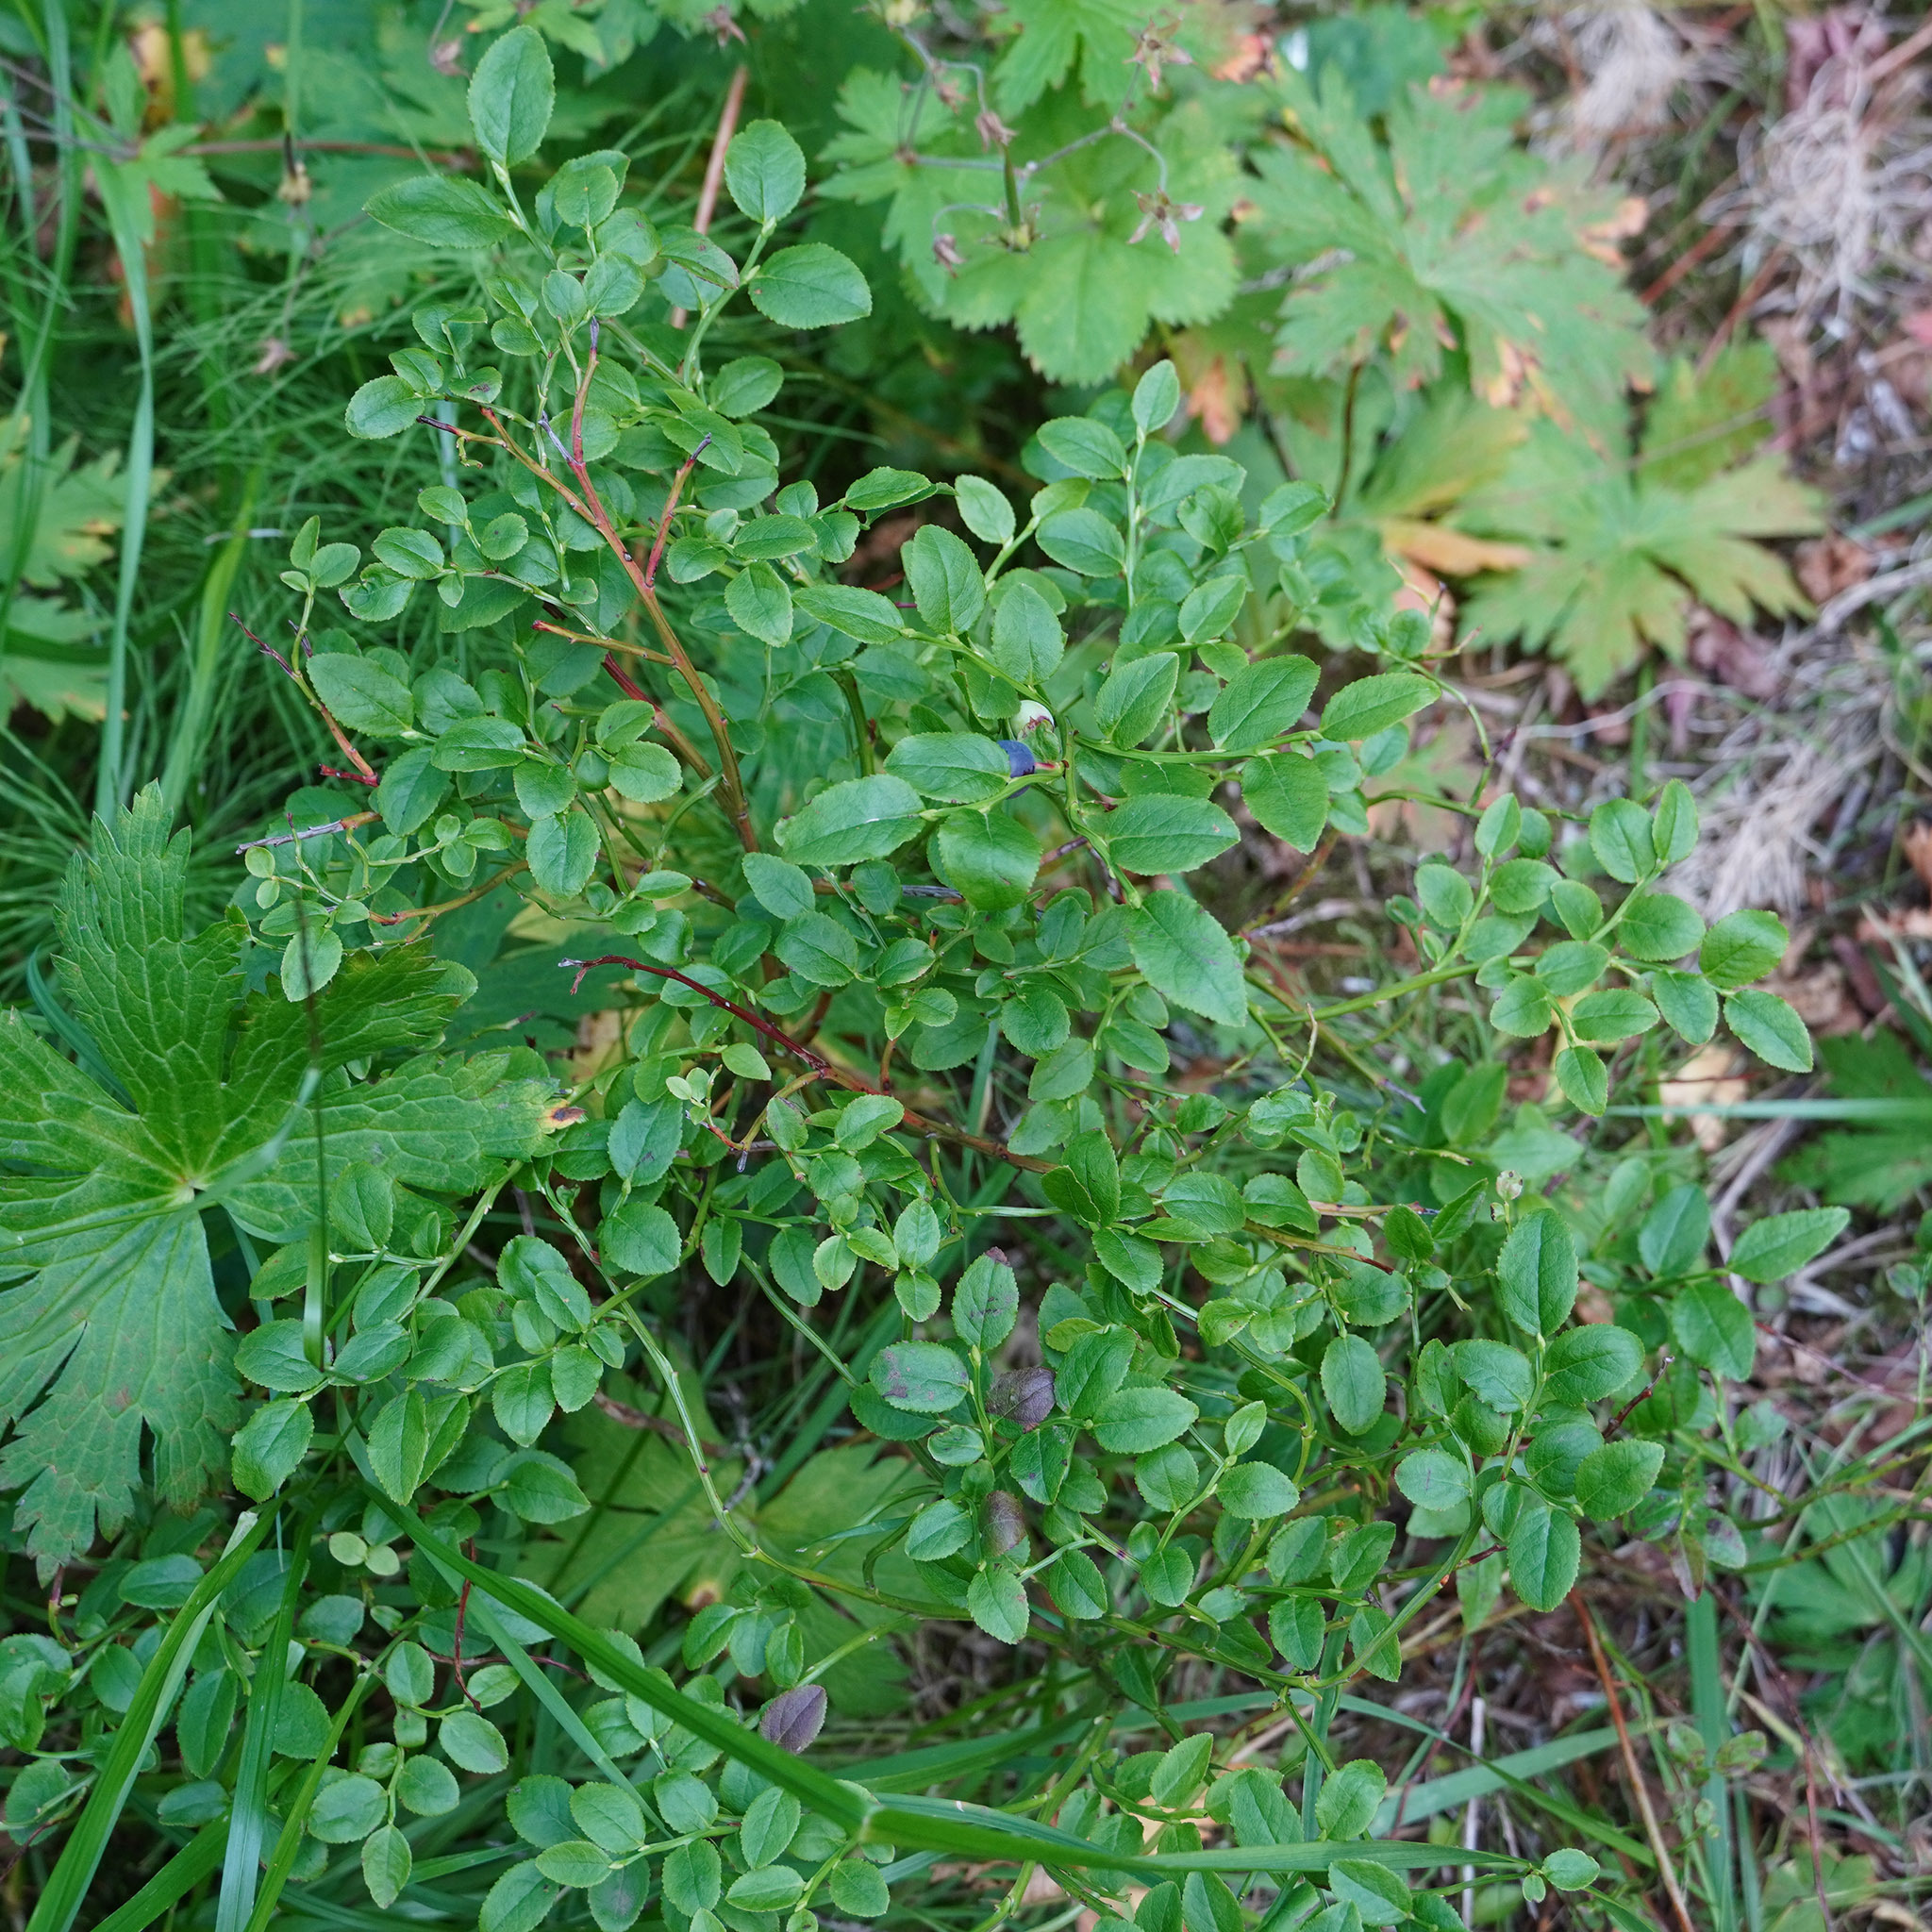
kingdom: Plantae
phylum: Tracheophyta
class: Magnoliopsida
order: Ericales
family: Ericaceae
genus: Vaccinium
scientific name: Vaccinium myrtillus
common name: Bilberry
